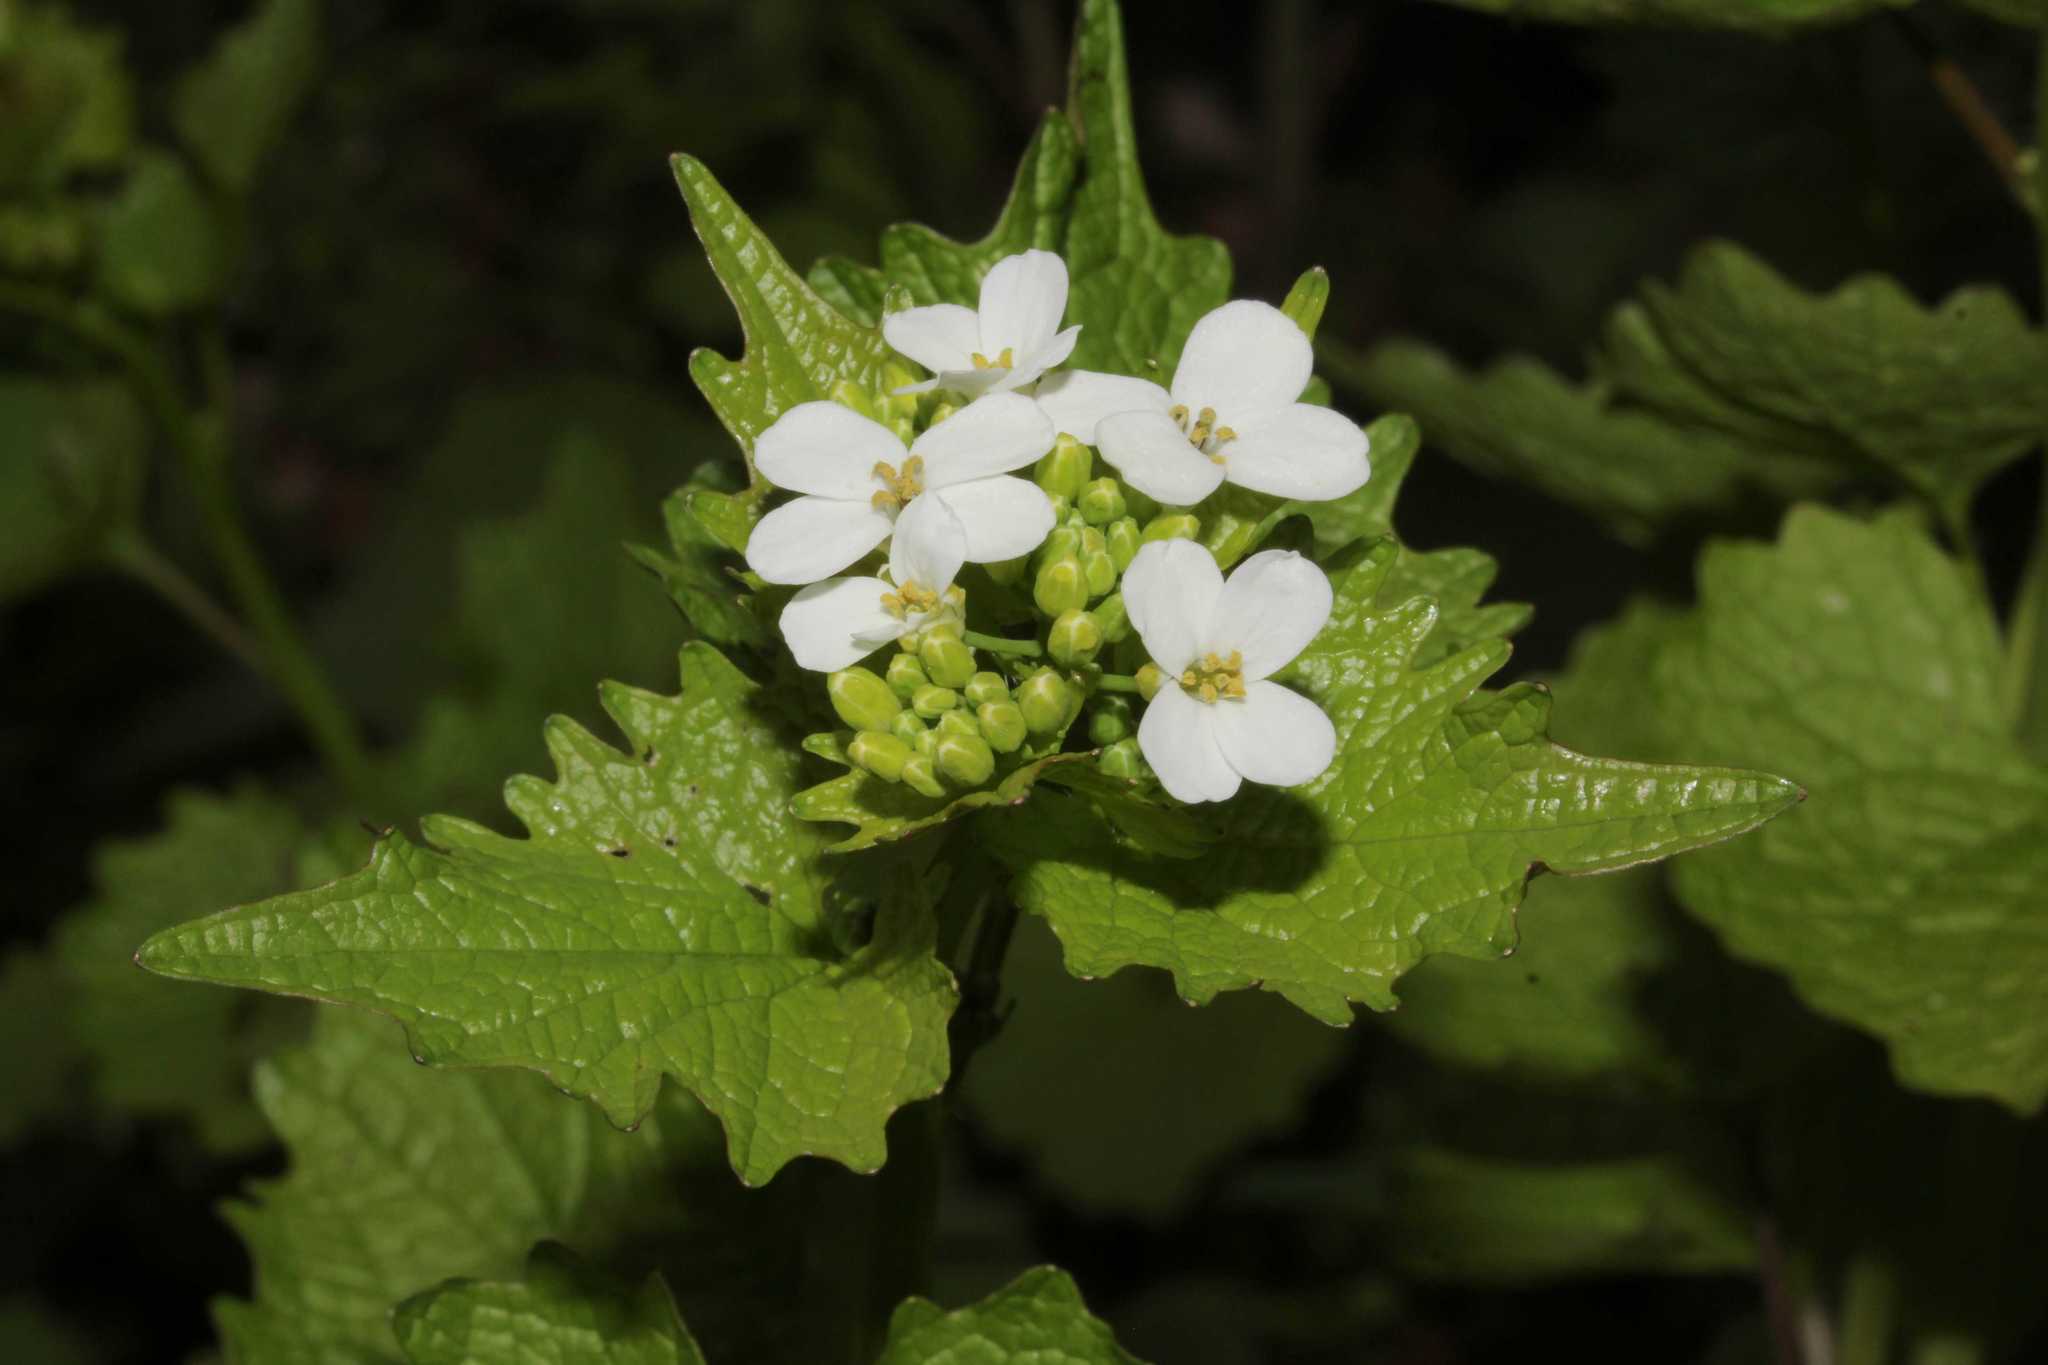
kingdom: Plantae
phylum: Tracheophyta
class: Magnoliopsida
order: Brassicales
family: Brassicaceae
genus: Alliaria
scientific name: Alliaria petiolata
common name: Garlic mustard
